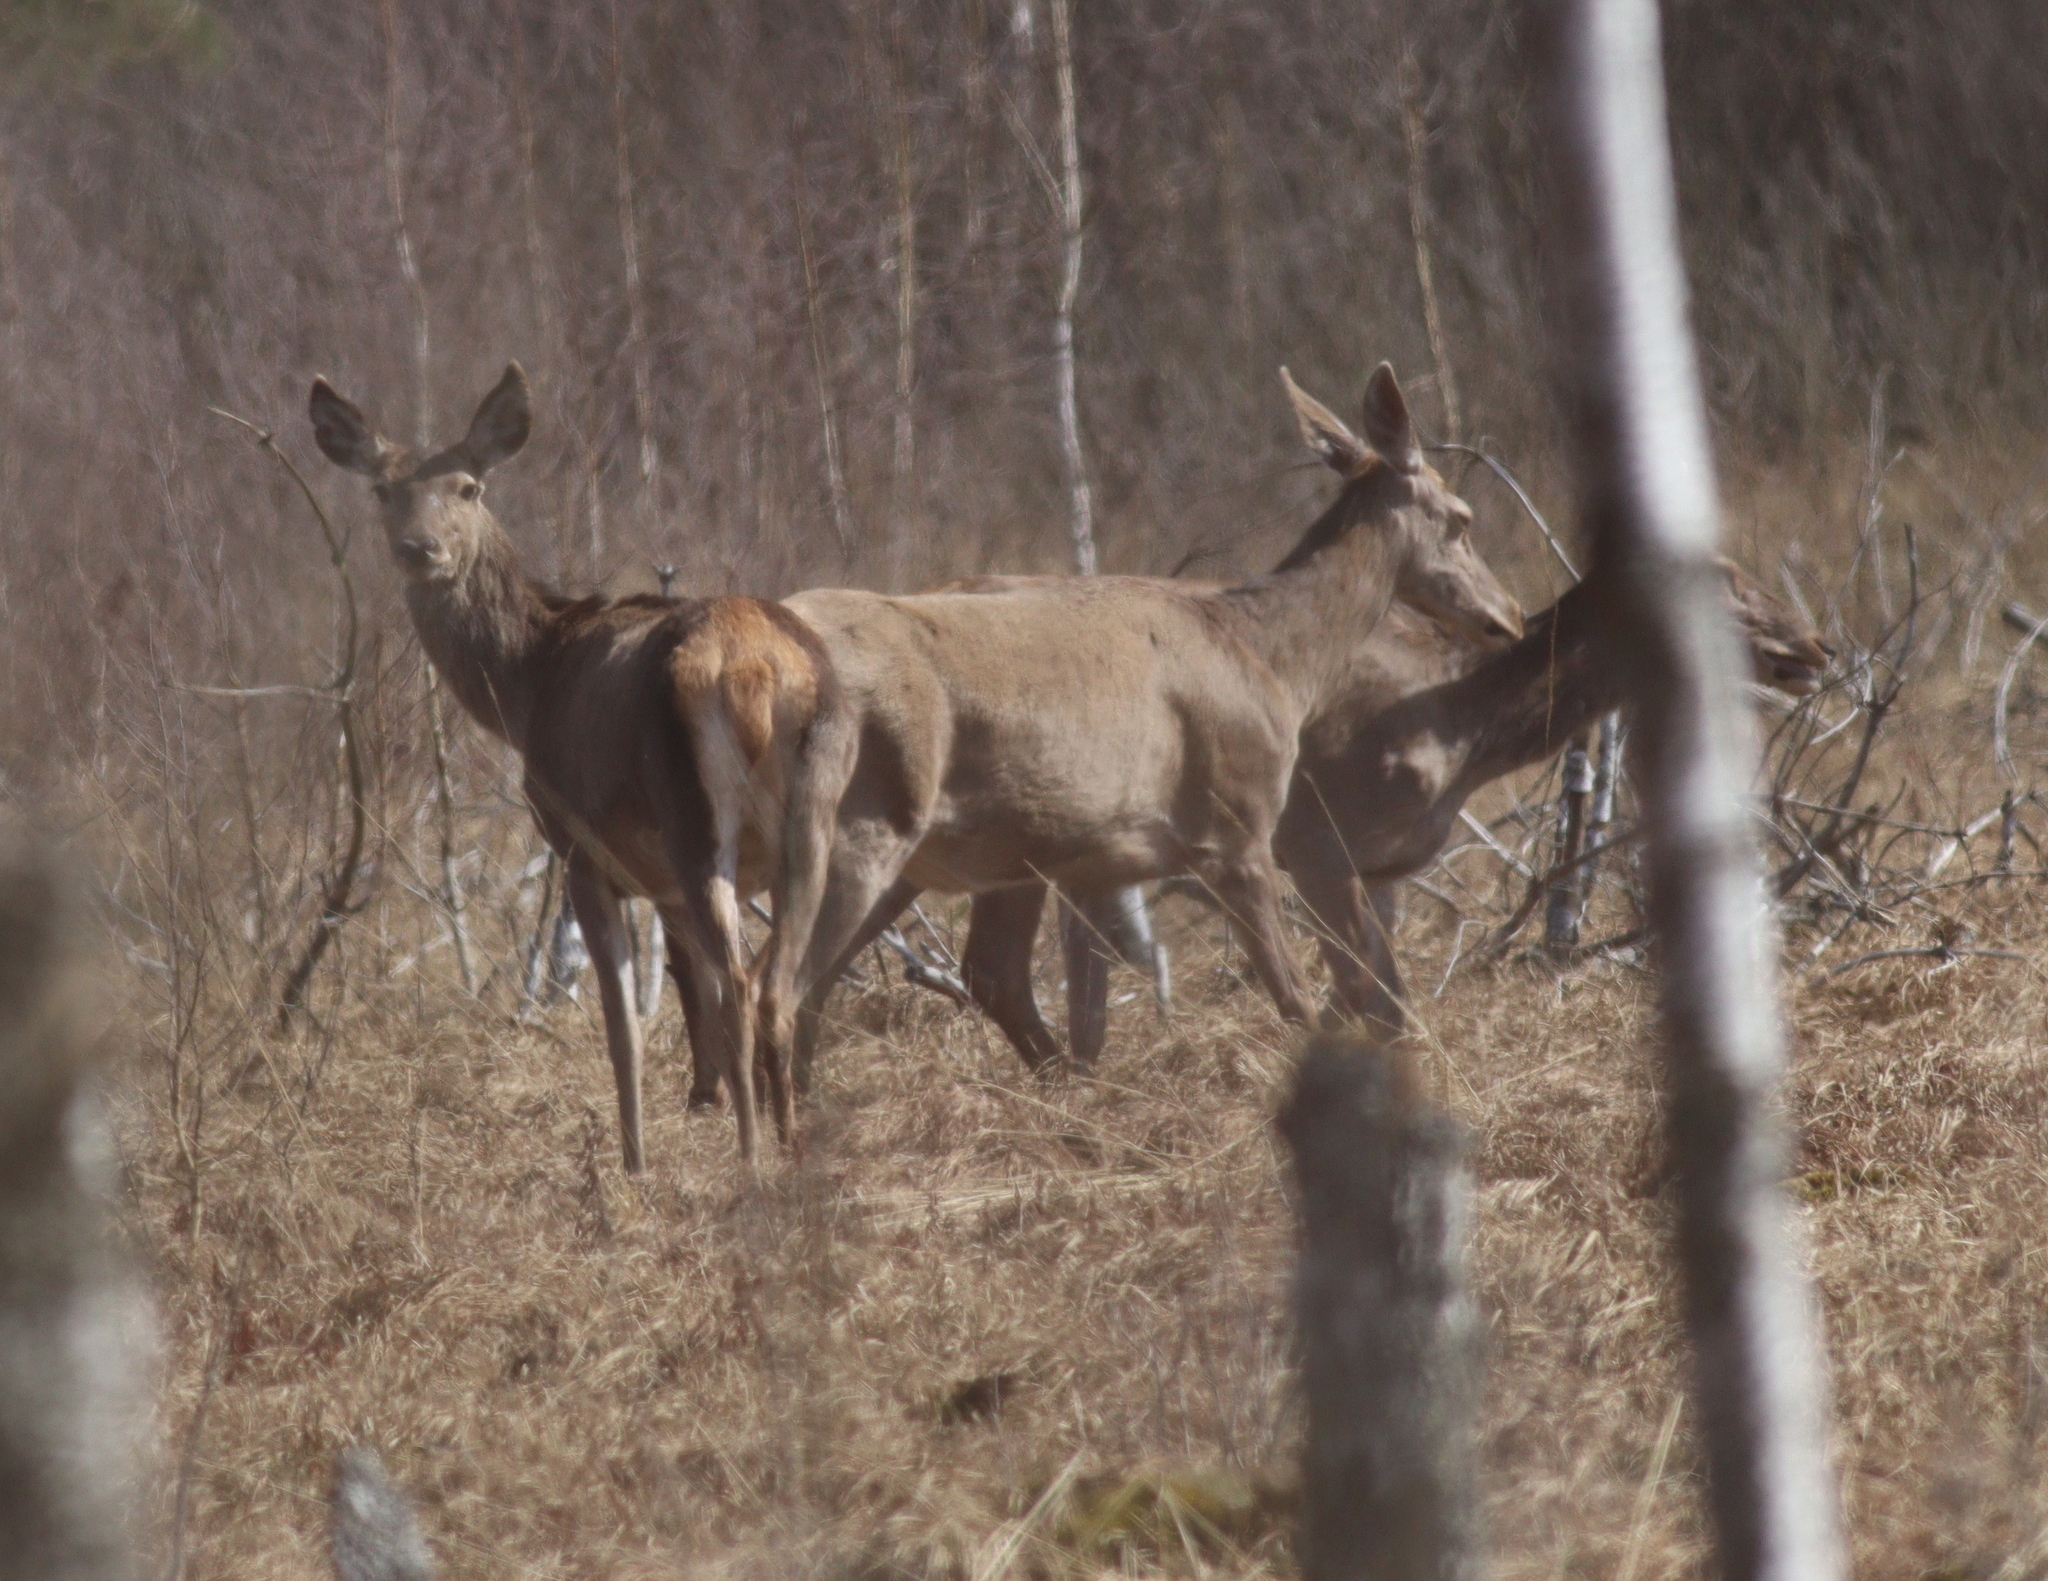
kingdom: Animalia
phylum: Chordata
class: Mammalia
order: Artiodactyla
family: Cervidae
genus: Cervus
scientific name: Cervus elaphus
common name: Red deer
